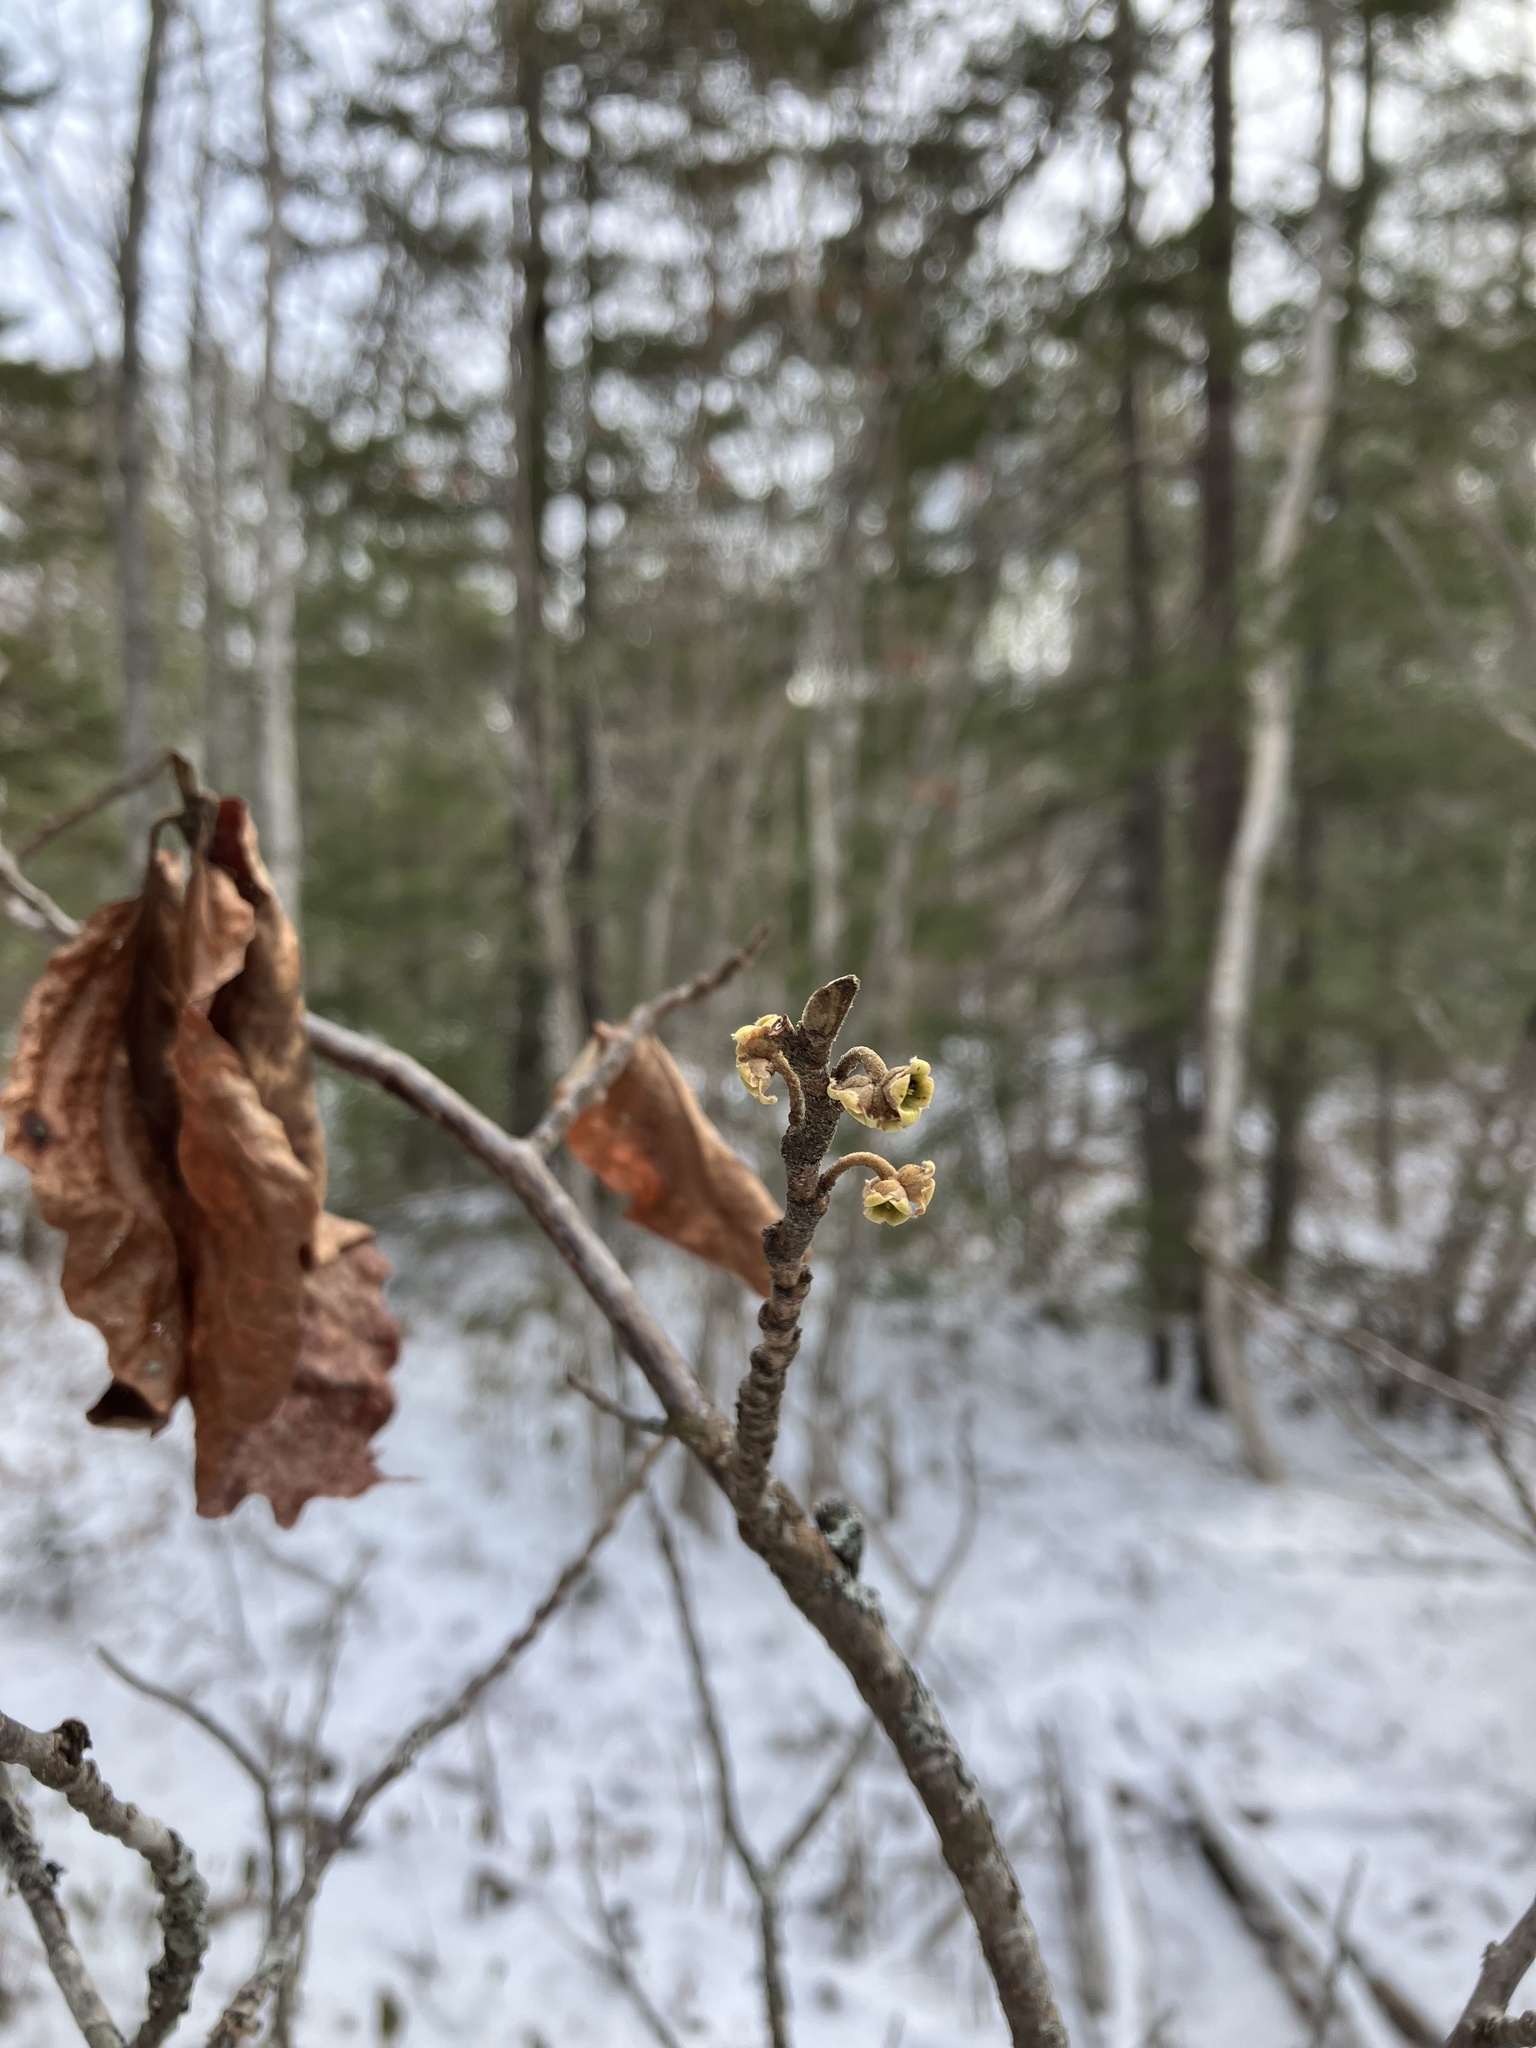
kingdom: Plantae
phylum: Tracheophyta
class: Magnoliopsida
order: Saxifragales
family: Hamamelidaceae
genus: Hamamelis
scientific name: Hamamelis virginiana
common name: Witch-hazel
